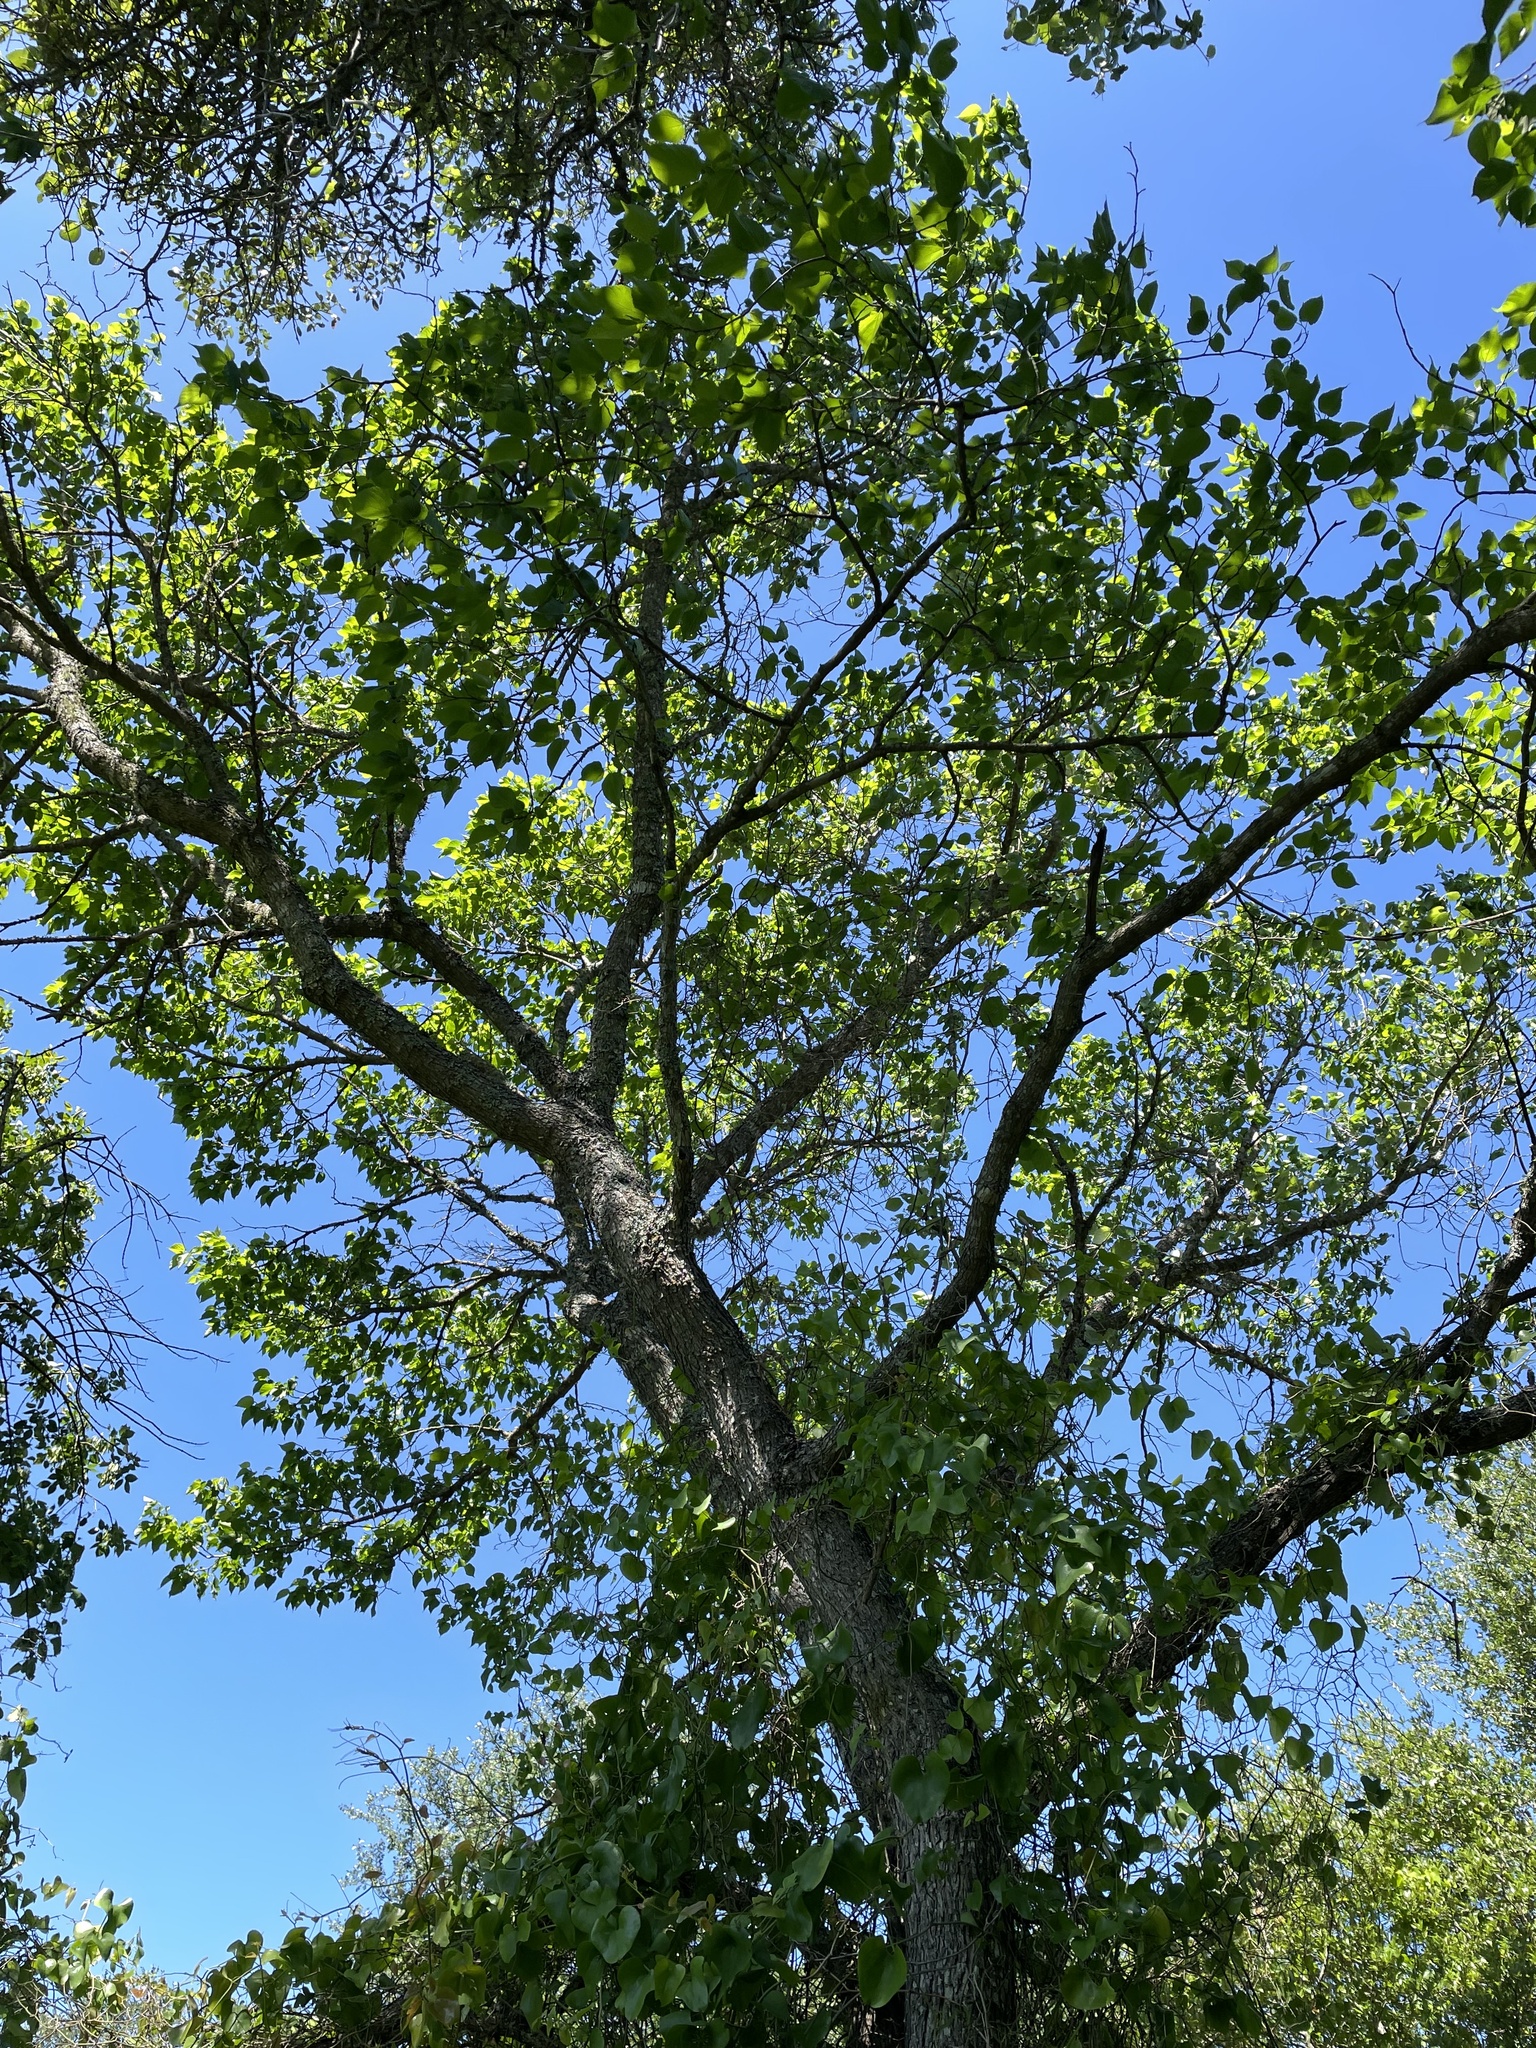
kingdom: Plantae
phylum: Tracheophyta
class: Magnoliopsida
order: Rosales
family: Moraceae
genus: Morus
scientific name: Morus rubra
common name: Red mulberry
